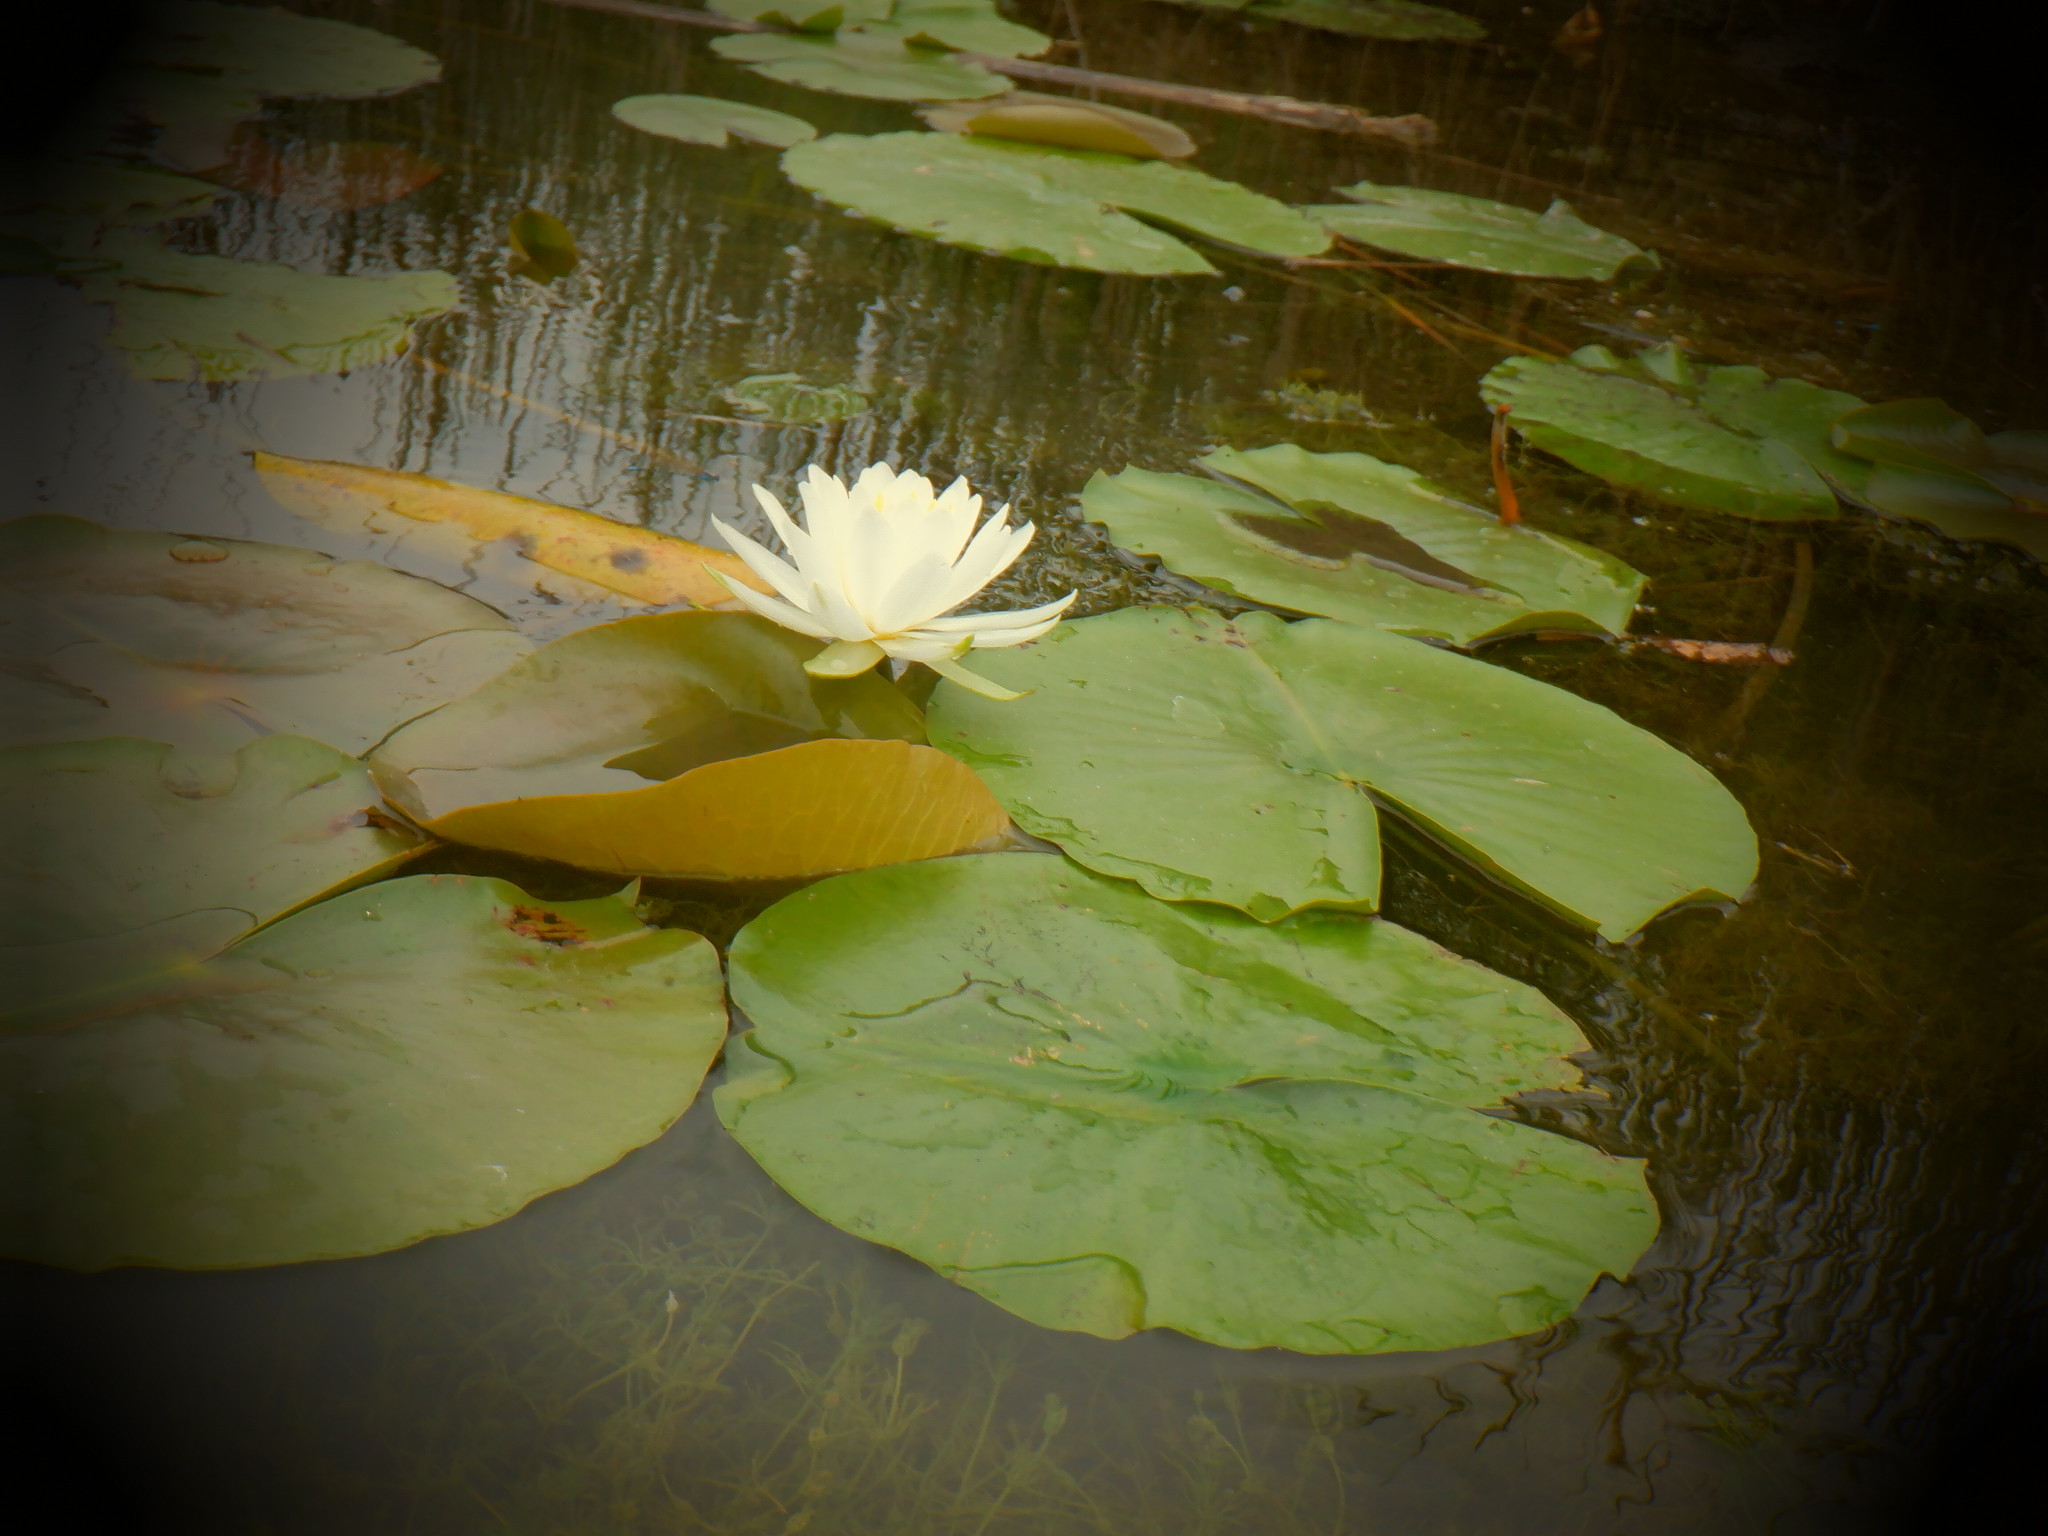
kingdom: Plantae
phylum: Tracheophyta
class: Magnoliopsida
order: Nymphaeales
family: Nymphaeaceae
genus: Nymphaea
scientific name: Nymphaea odorata
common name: Fragrant water-lily
